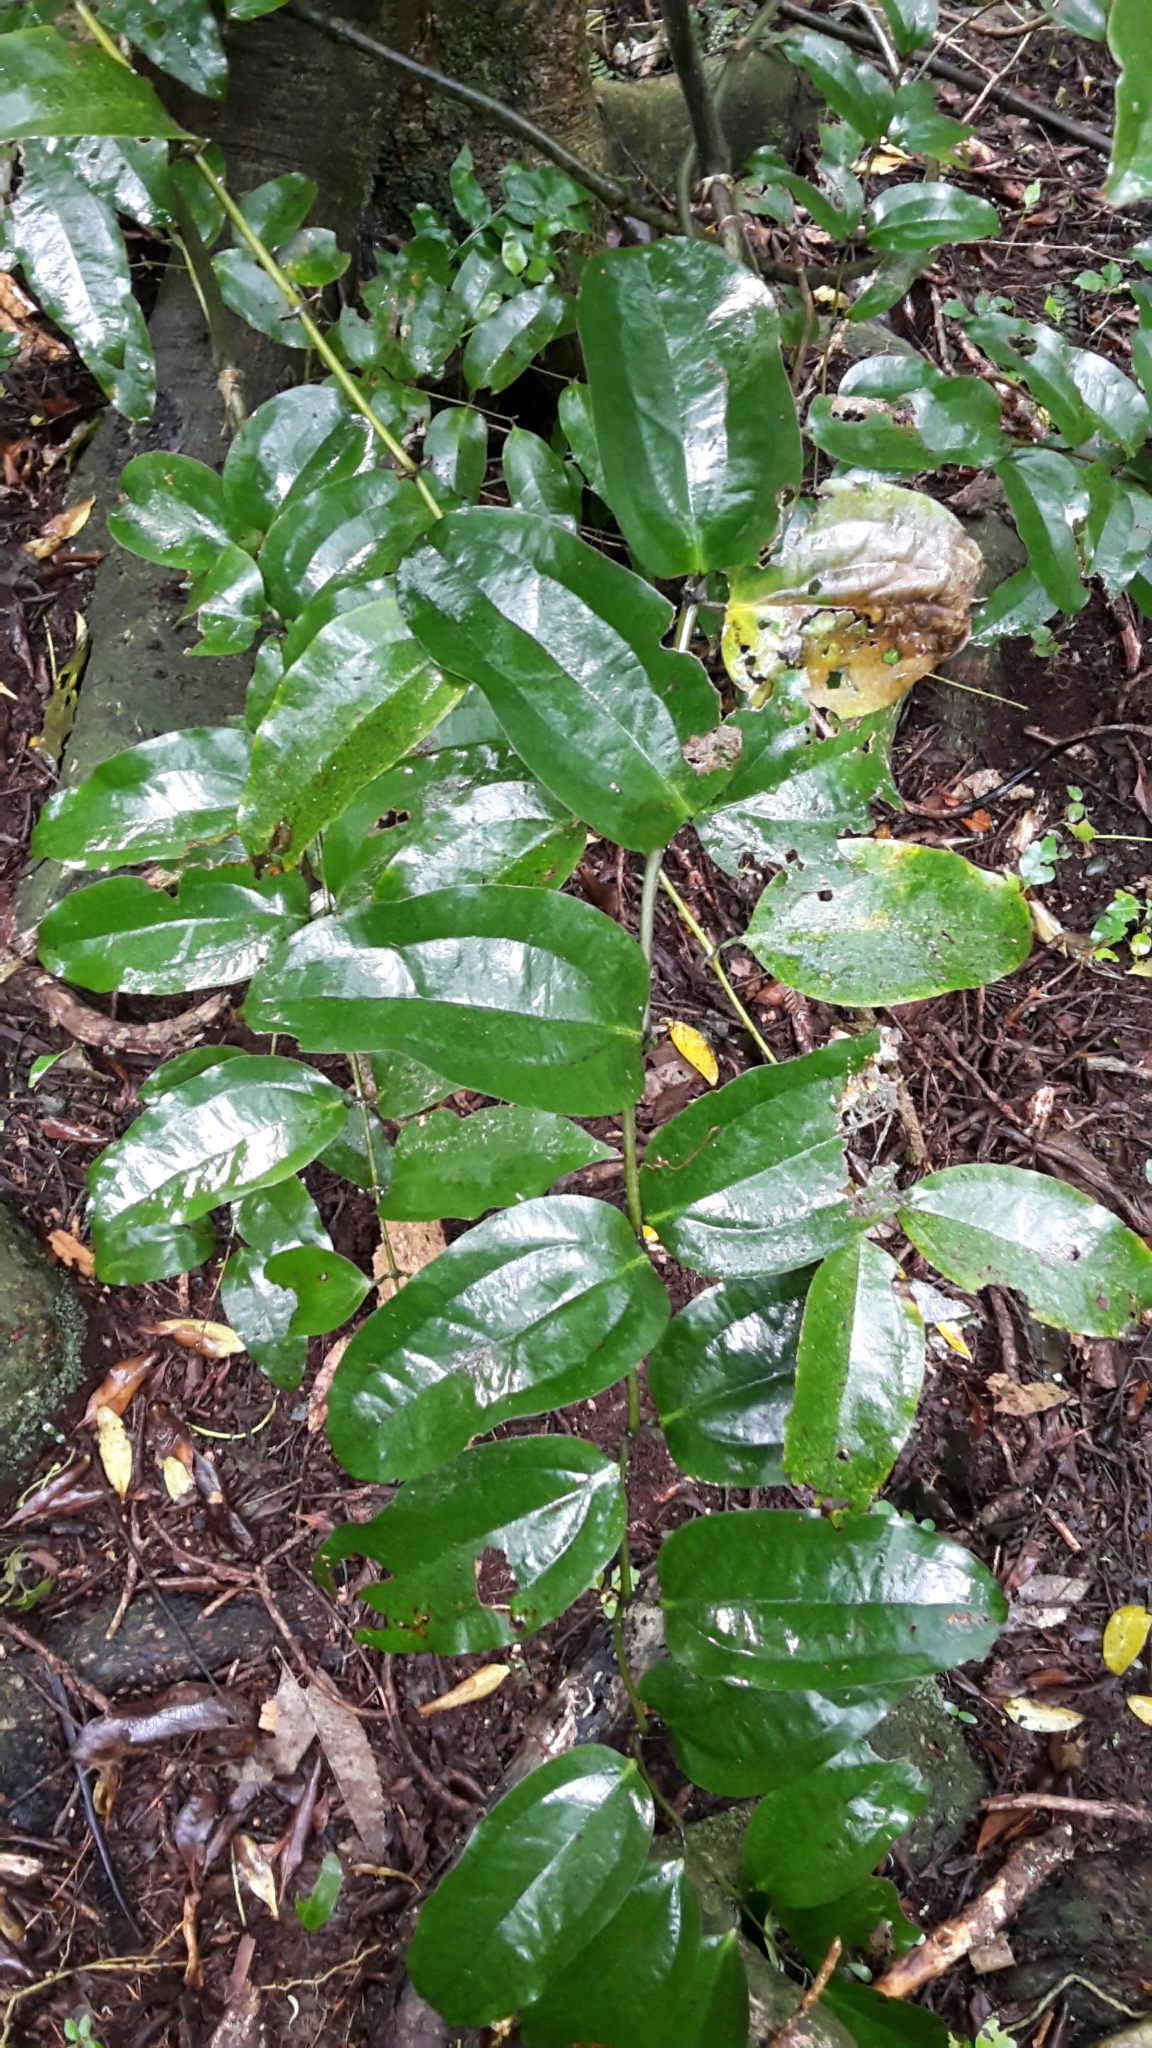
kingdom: Plantae
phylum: Tracheophyta
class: Liliopsida
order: Liliales
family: Ripogonaceae
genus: Ripogonum
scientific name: Ripogonum scandens
